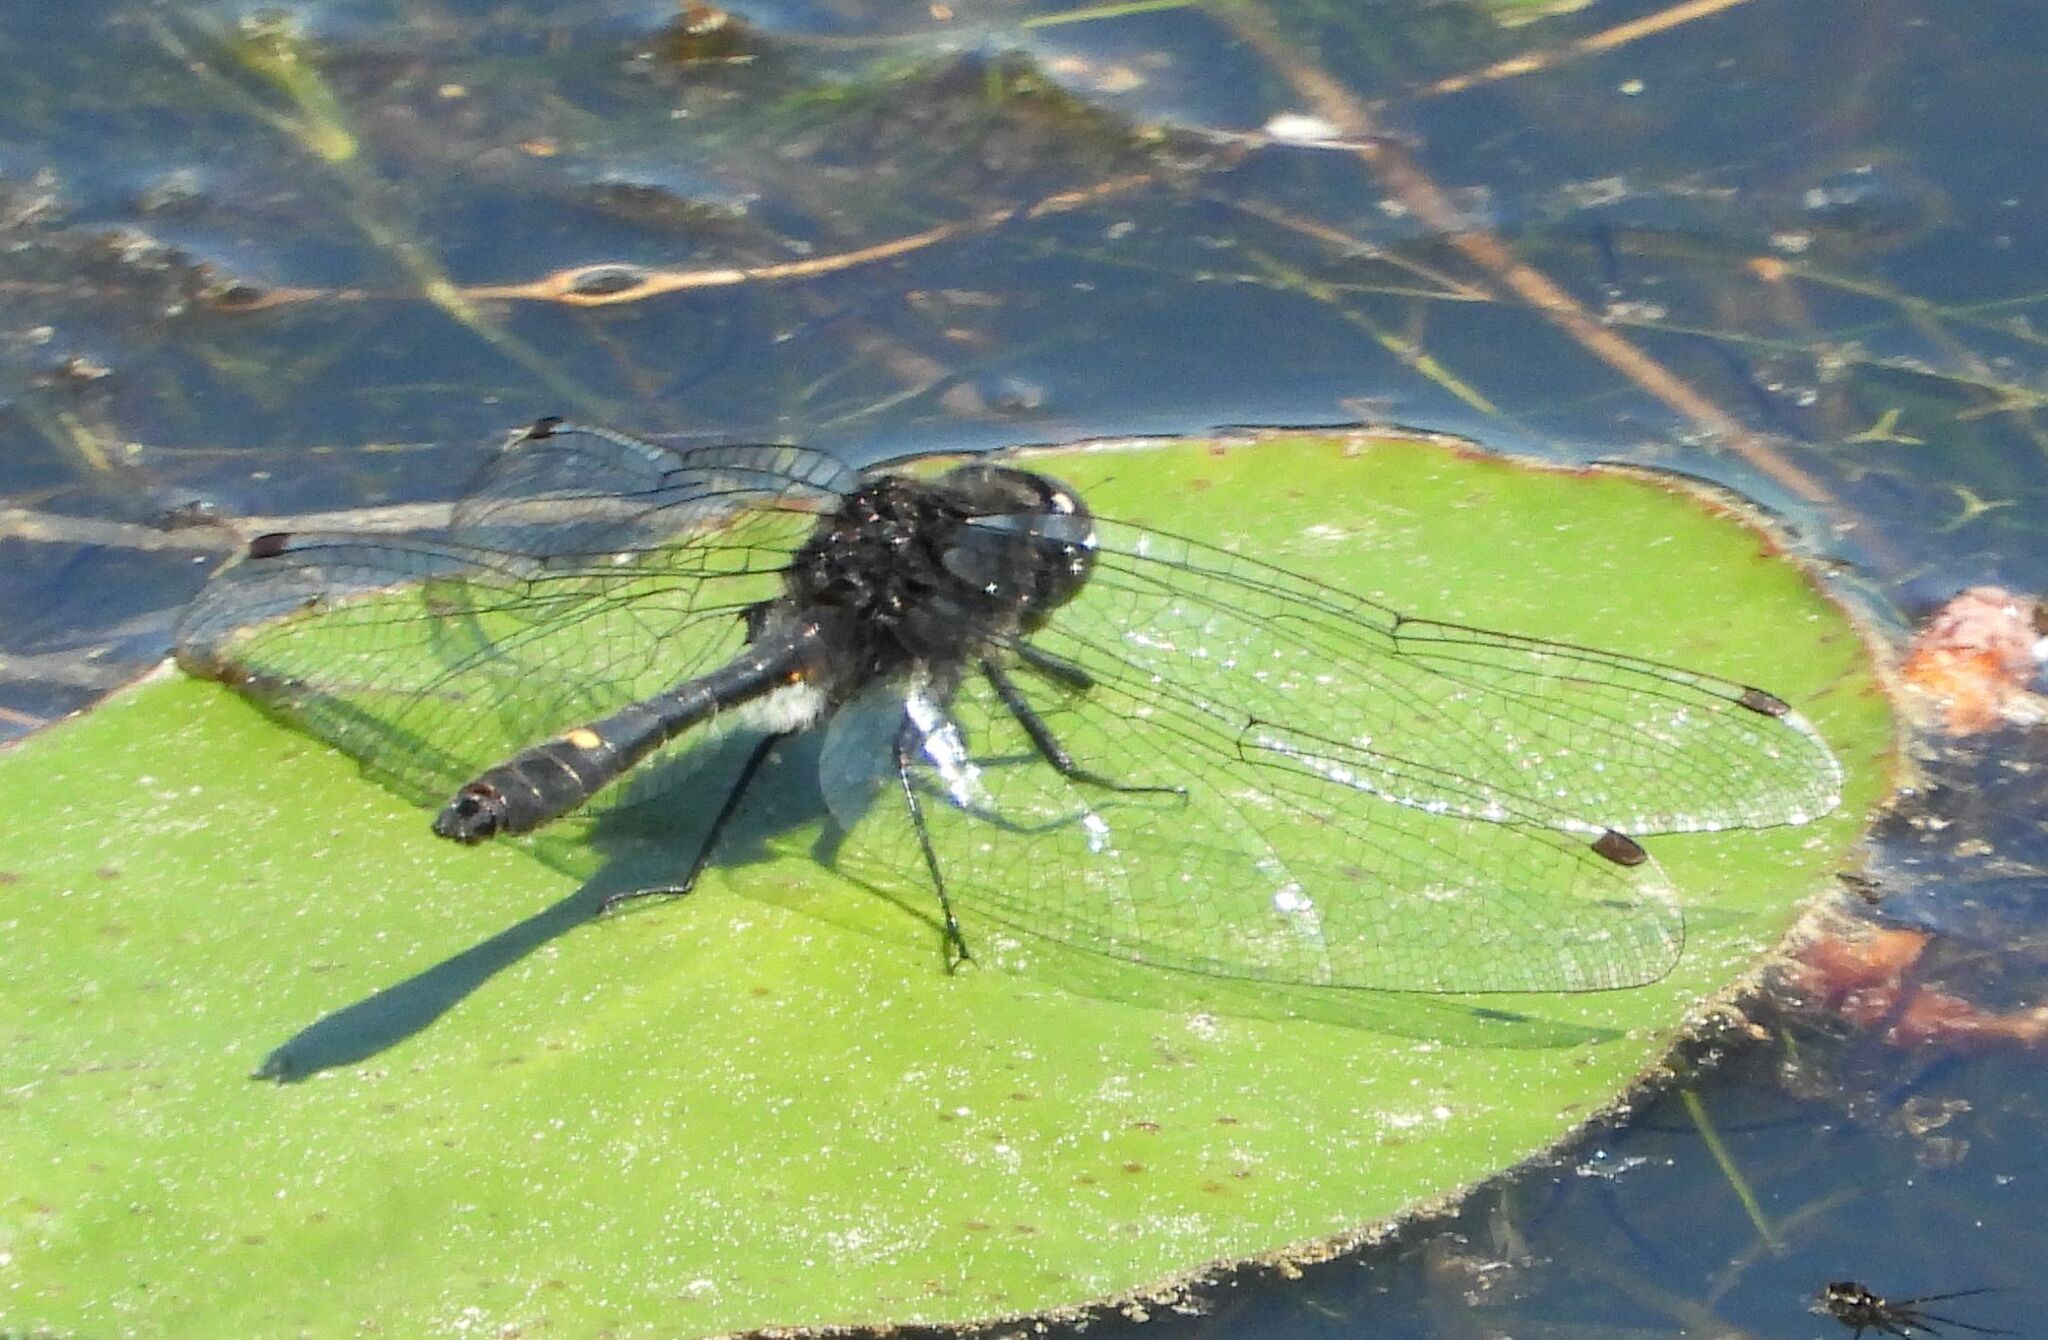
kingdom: Animalia
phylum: Arthropoda
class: Insecta
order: Odonata
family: Libellulidae
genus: Leucorrhinia
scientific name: Leucorrhinia intacta
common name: Dot-tailed whiteface
